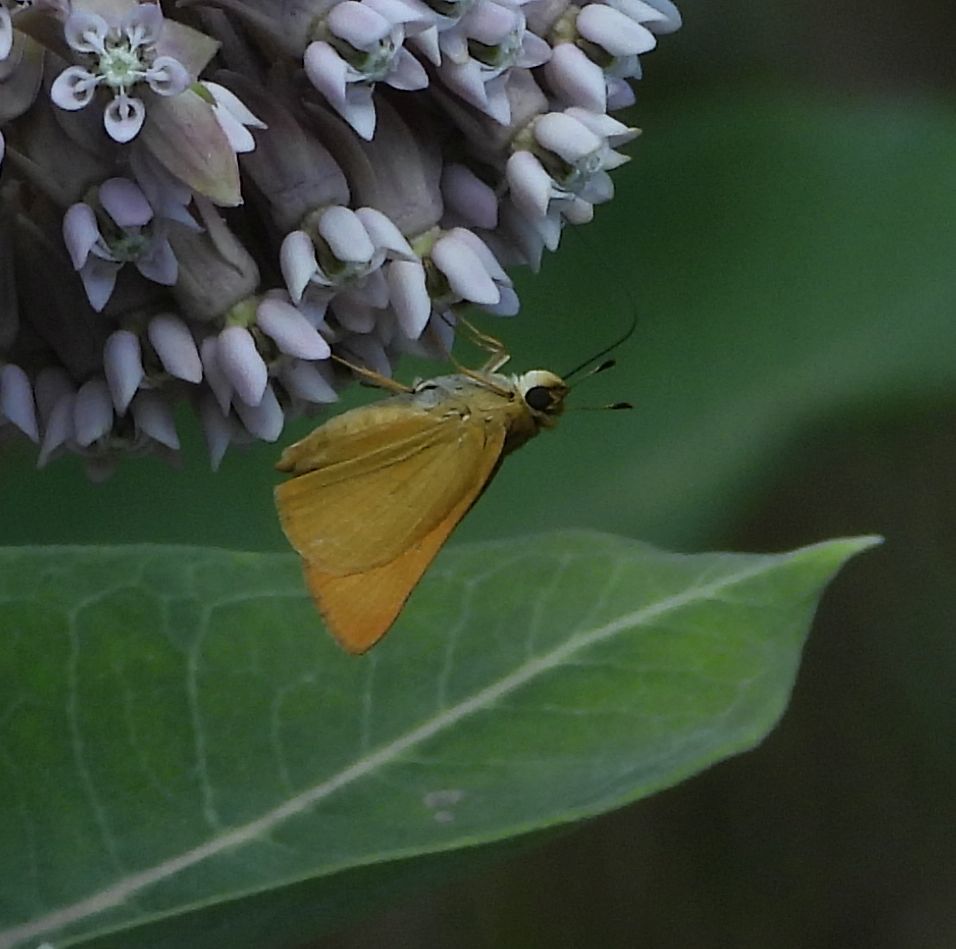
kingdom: Animalia
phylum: Arthropoda
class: Insecta
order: Lepidoptera
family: Hesperiidae
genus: Atrytone
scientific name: Atrytone delaware
